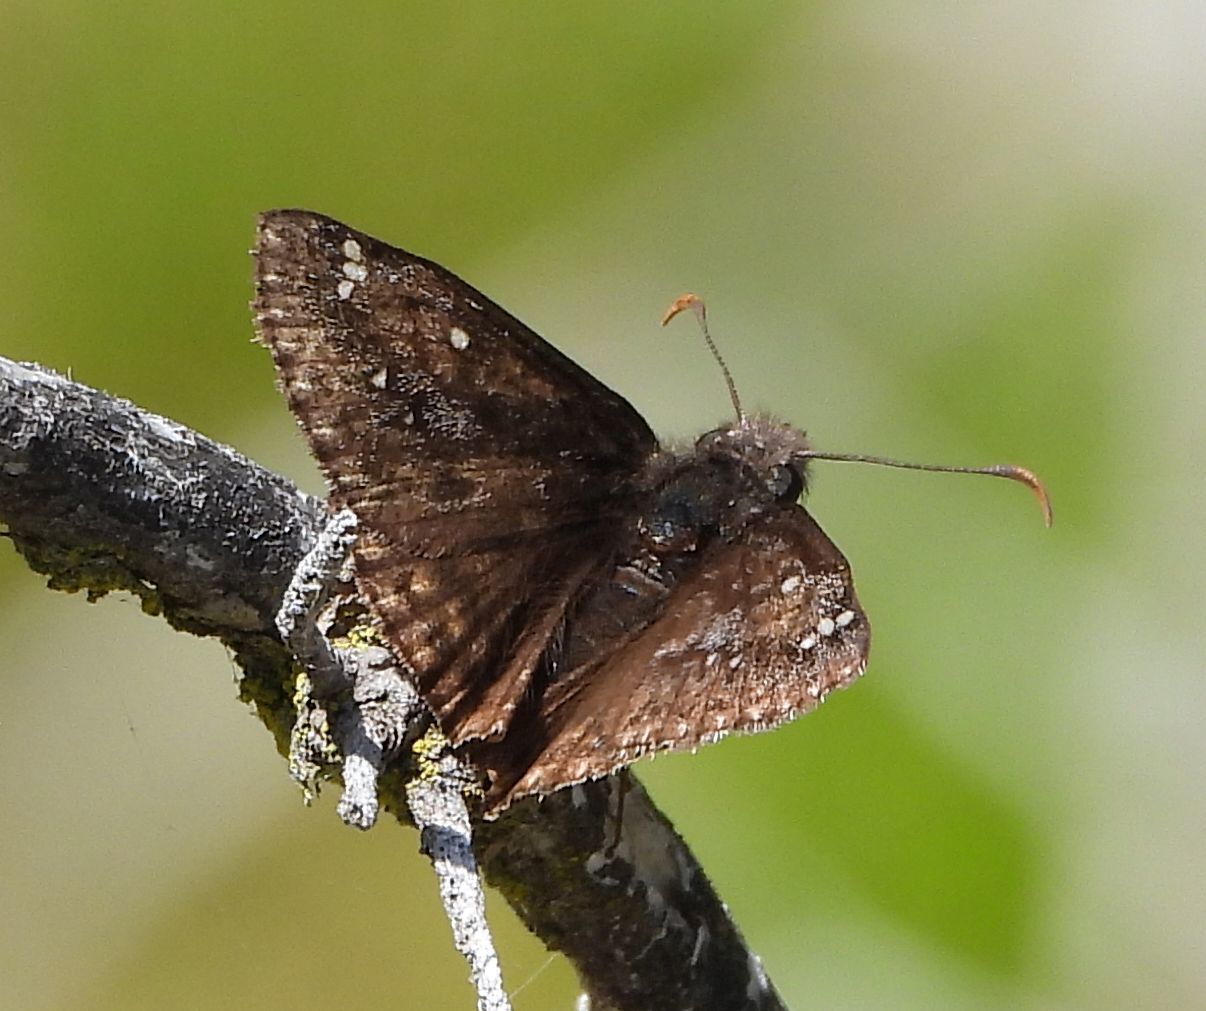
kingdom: Animalia
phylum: Arthropoda
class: Insecta
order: Lepidoptera
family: Hesperiidae
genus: Erynnis
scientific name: Erynnis juvenalis
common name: Juvenal's duskywing
